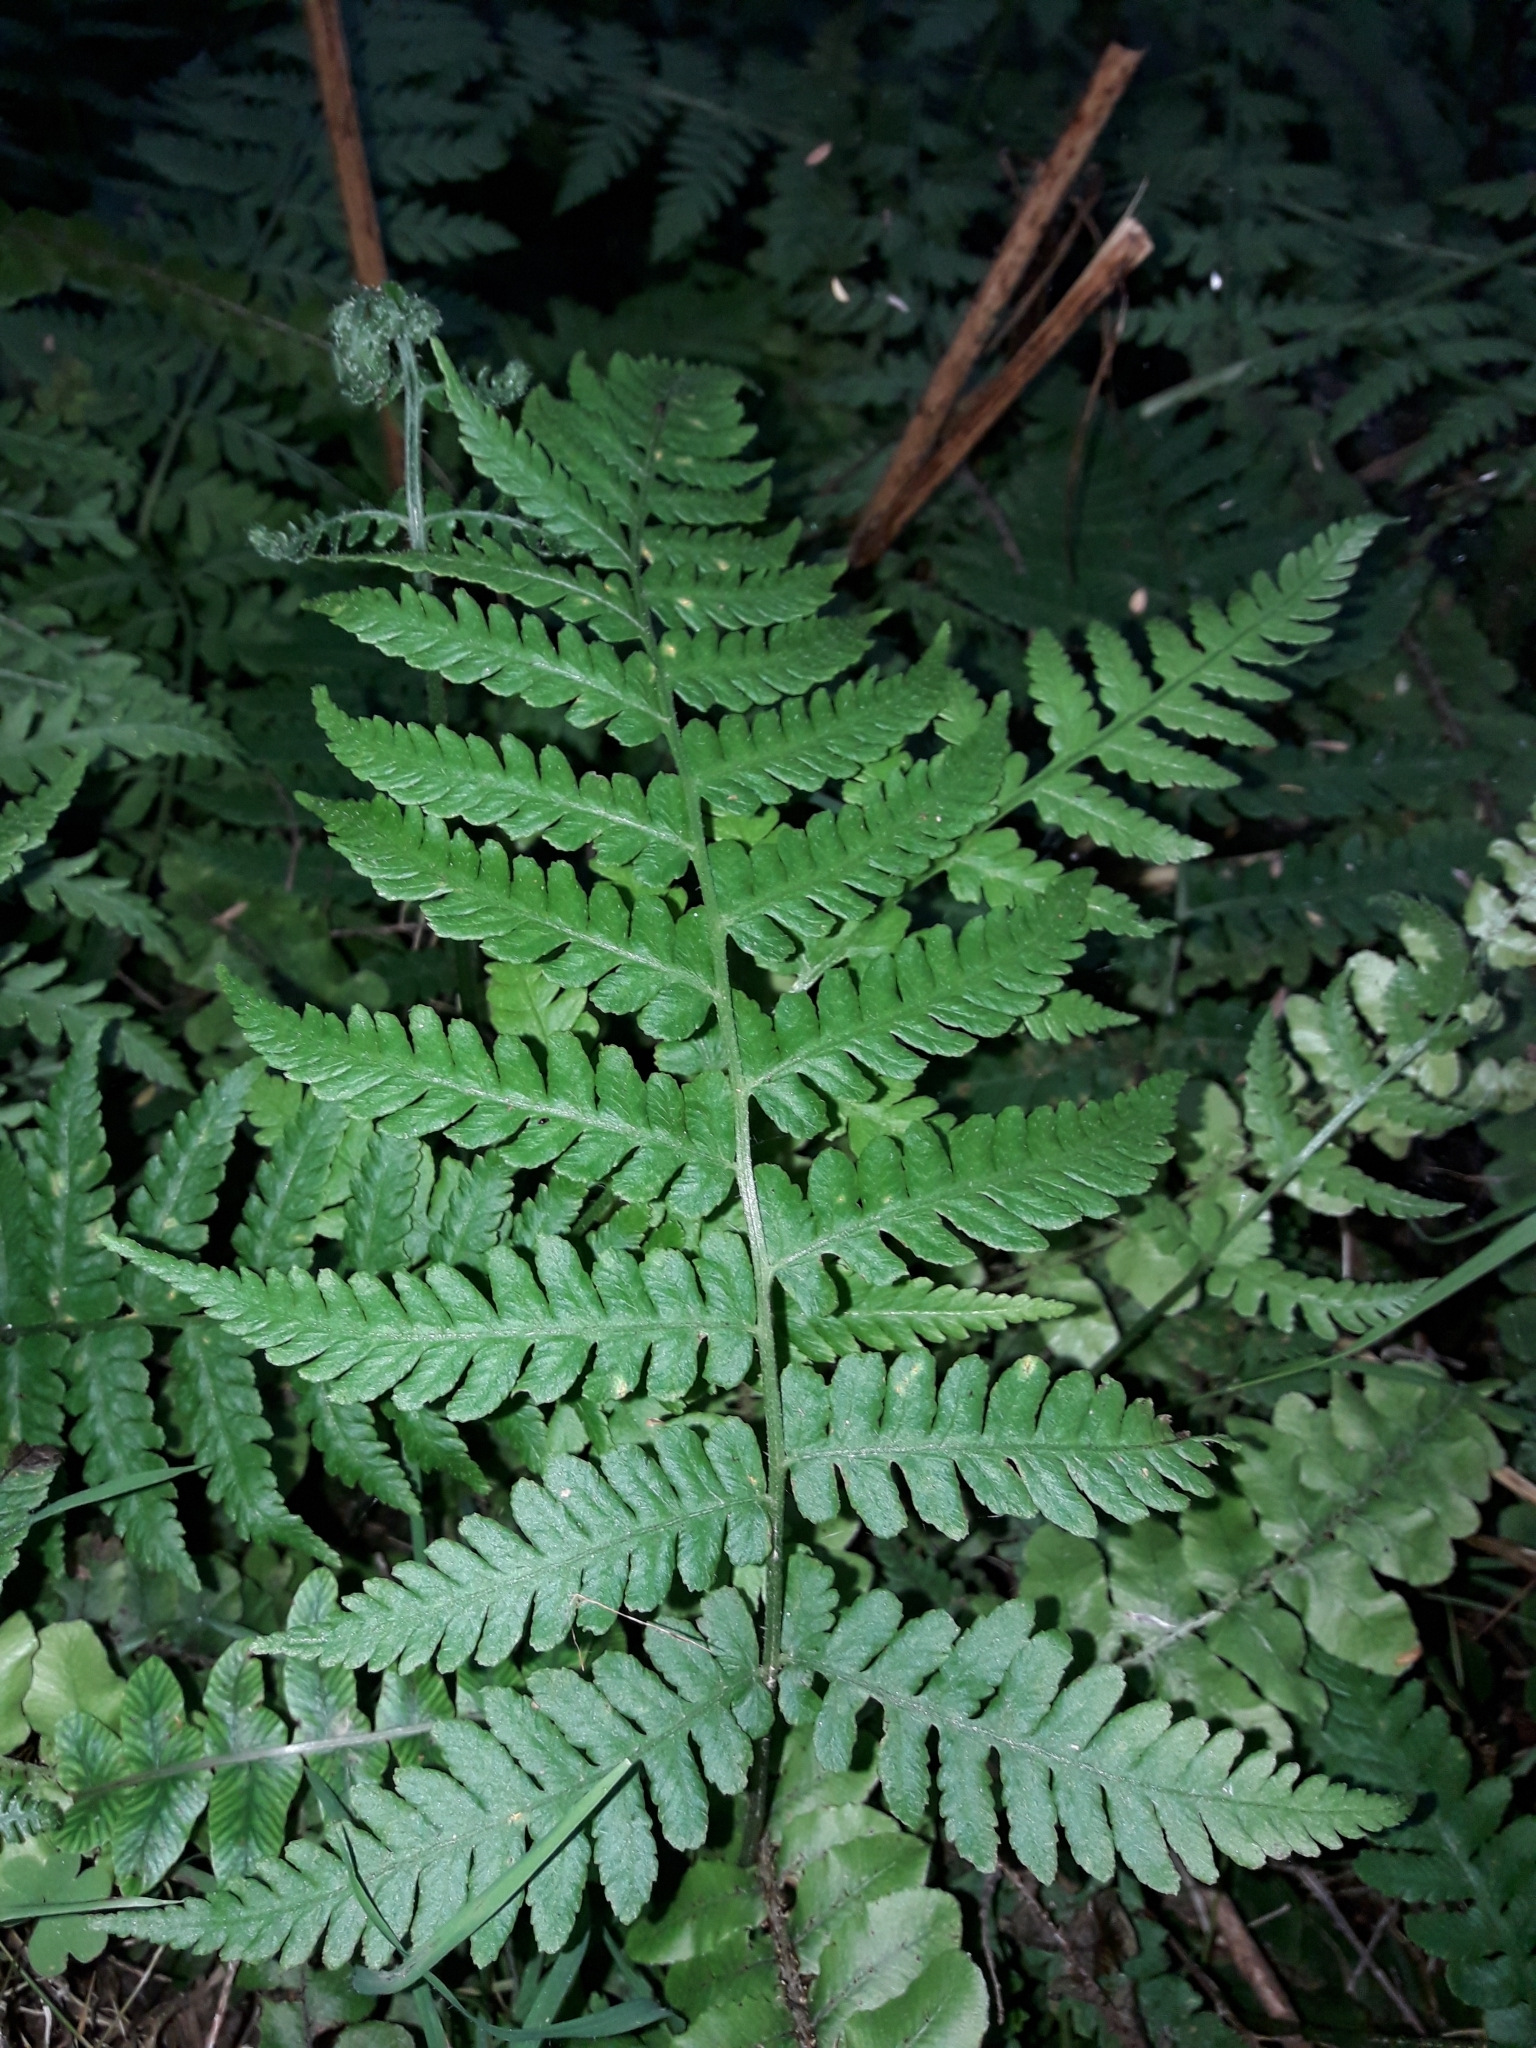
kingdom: Plantae
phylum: Tracheophyta
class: Polypodiopsida
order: Polypodiales
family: Athyriaceae
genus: Deparia
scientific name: Deparia petersenii
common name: Japanese false spleenwort
